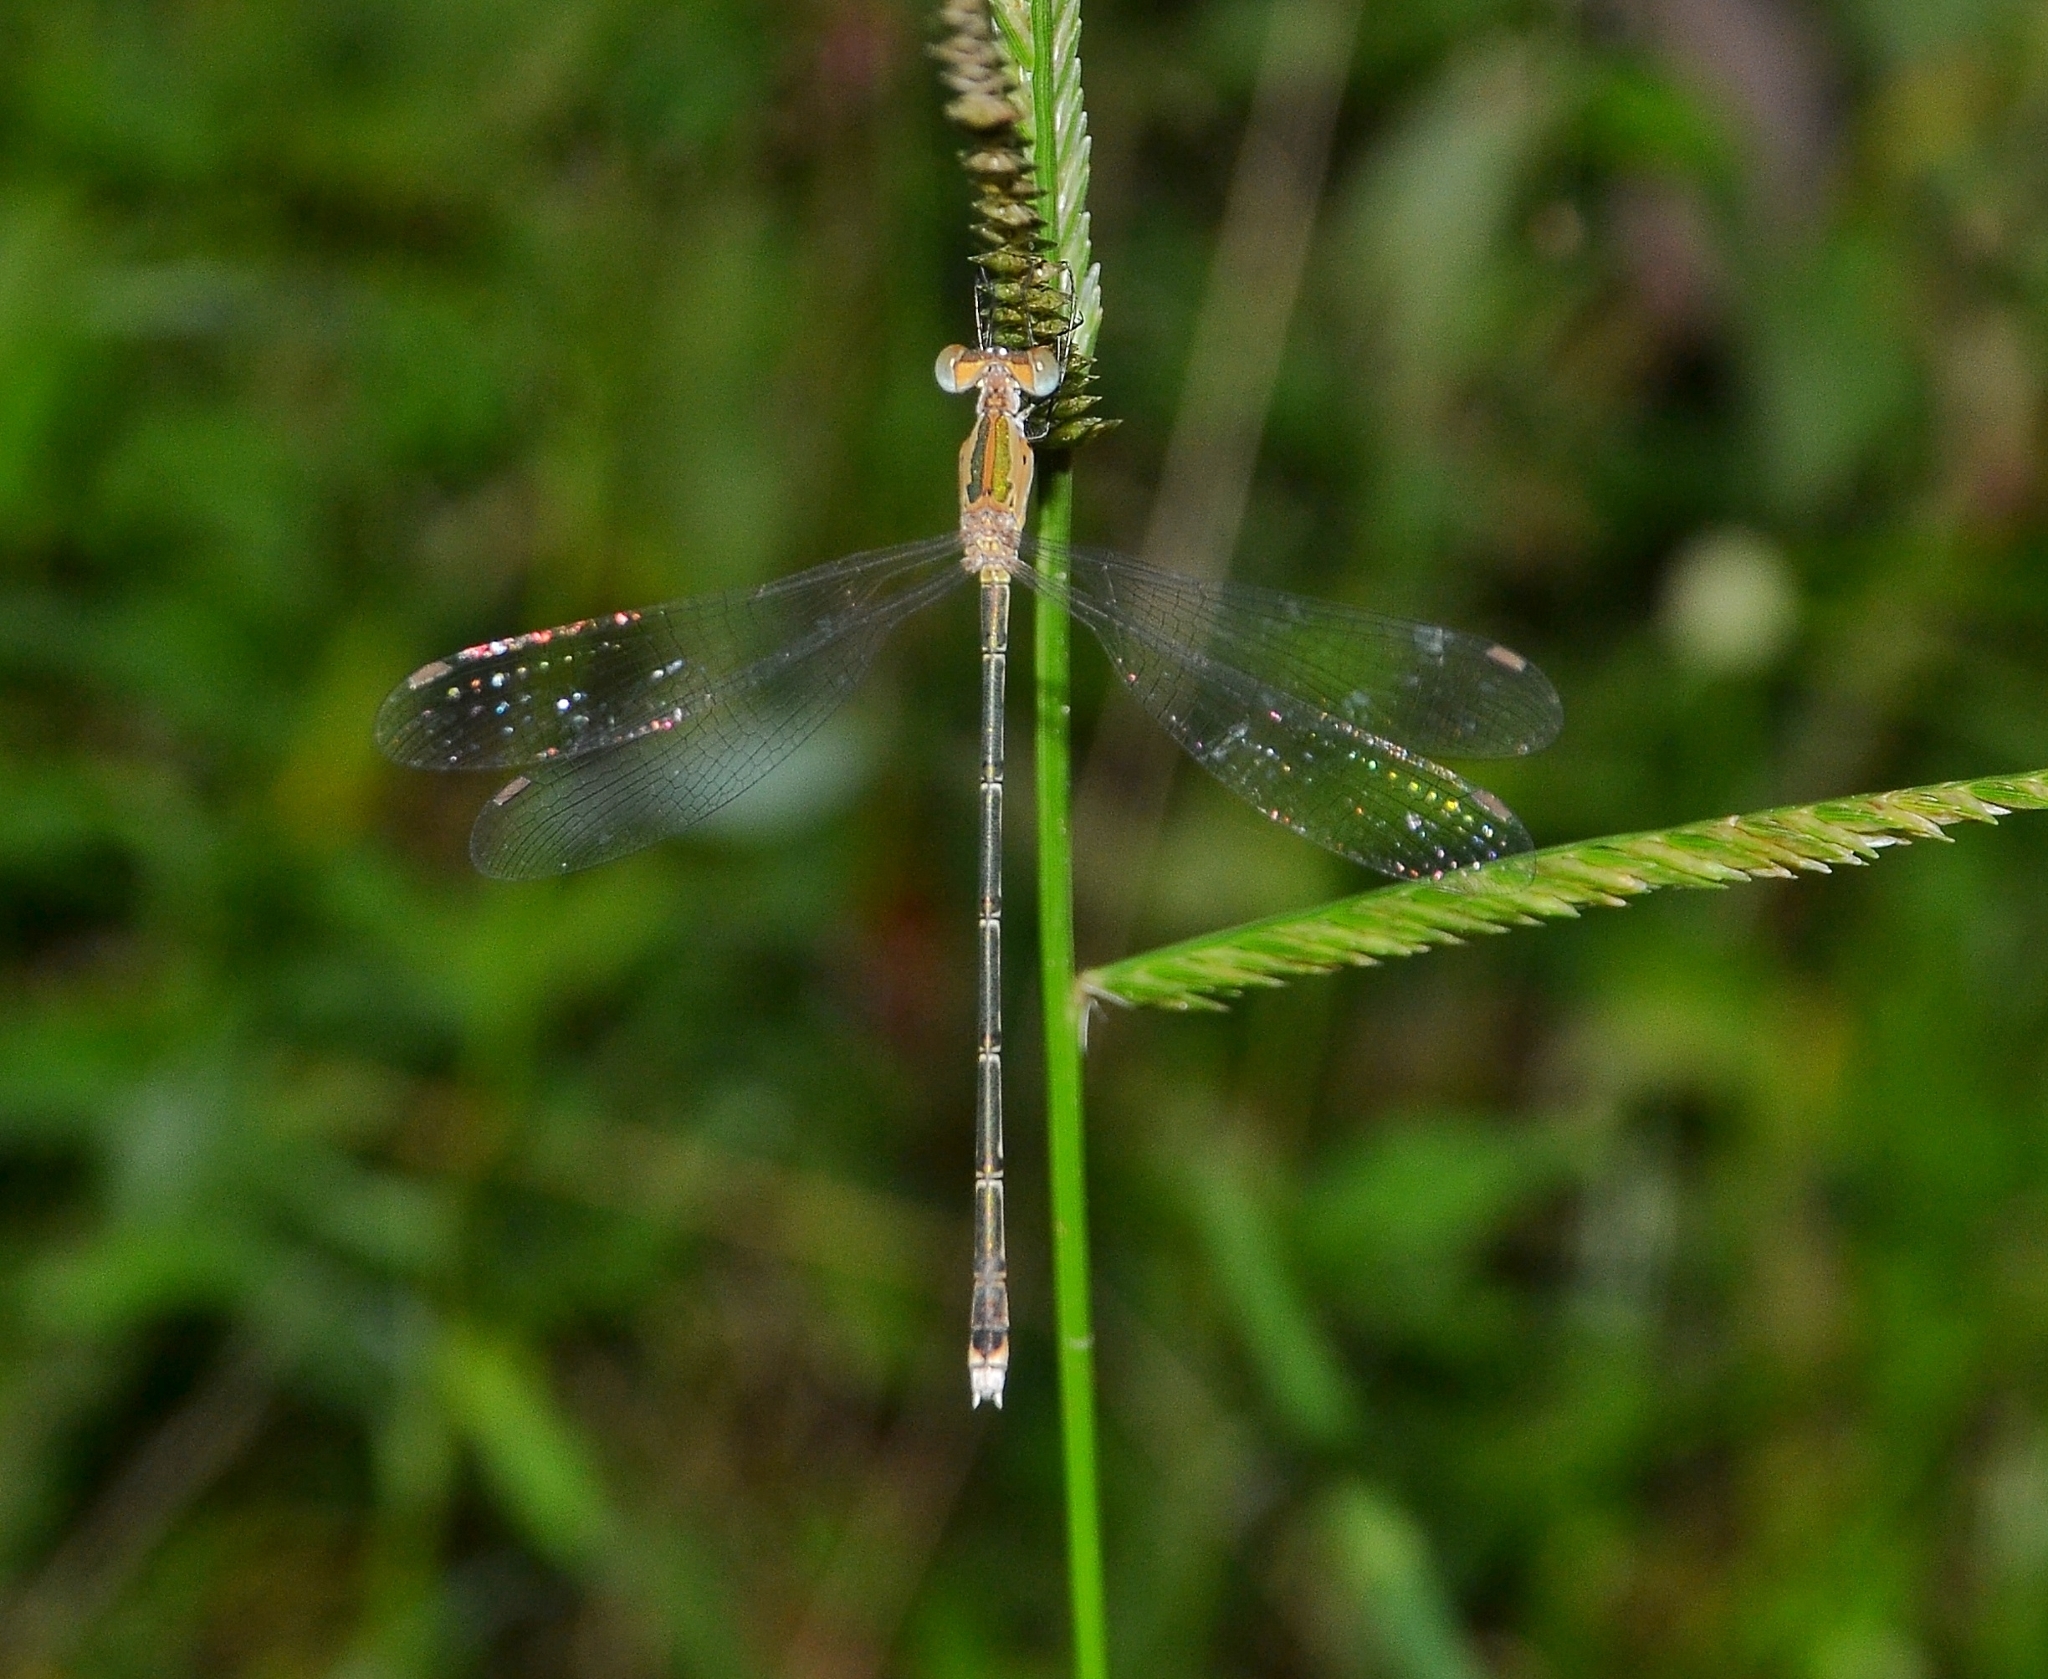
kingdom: Animalia
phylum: Arthropoda
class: Insecta
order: Odonata
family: Lestidae
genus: Lestes
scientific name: Lestes elatus
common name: Emerald spreadwing
